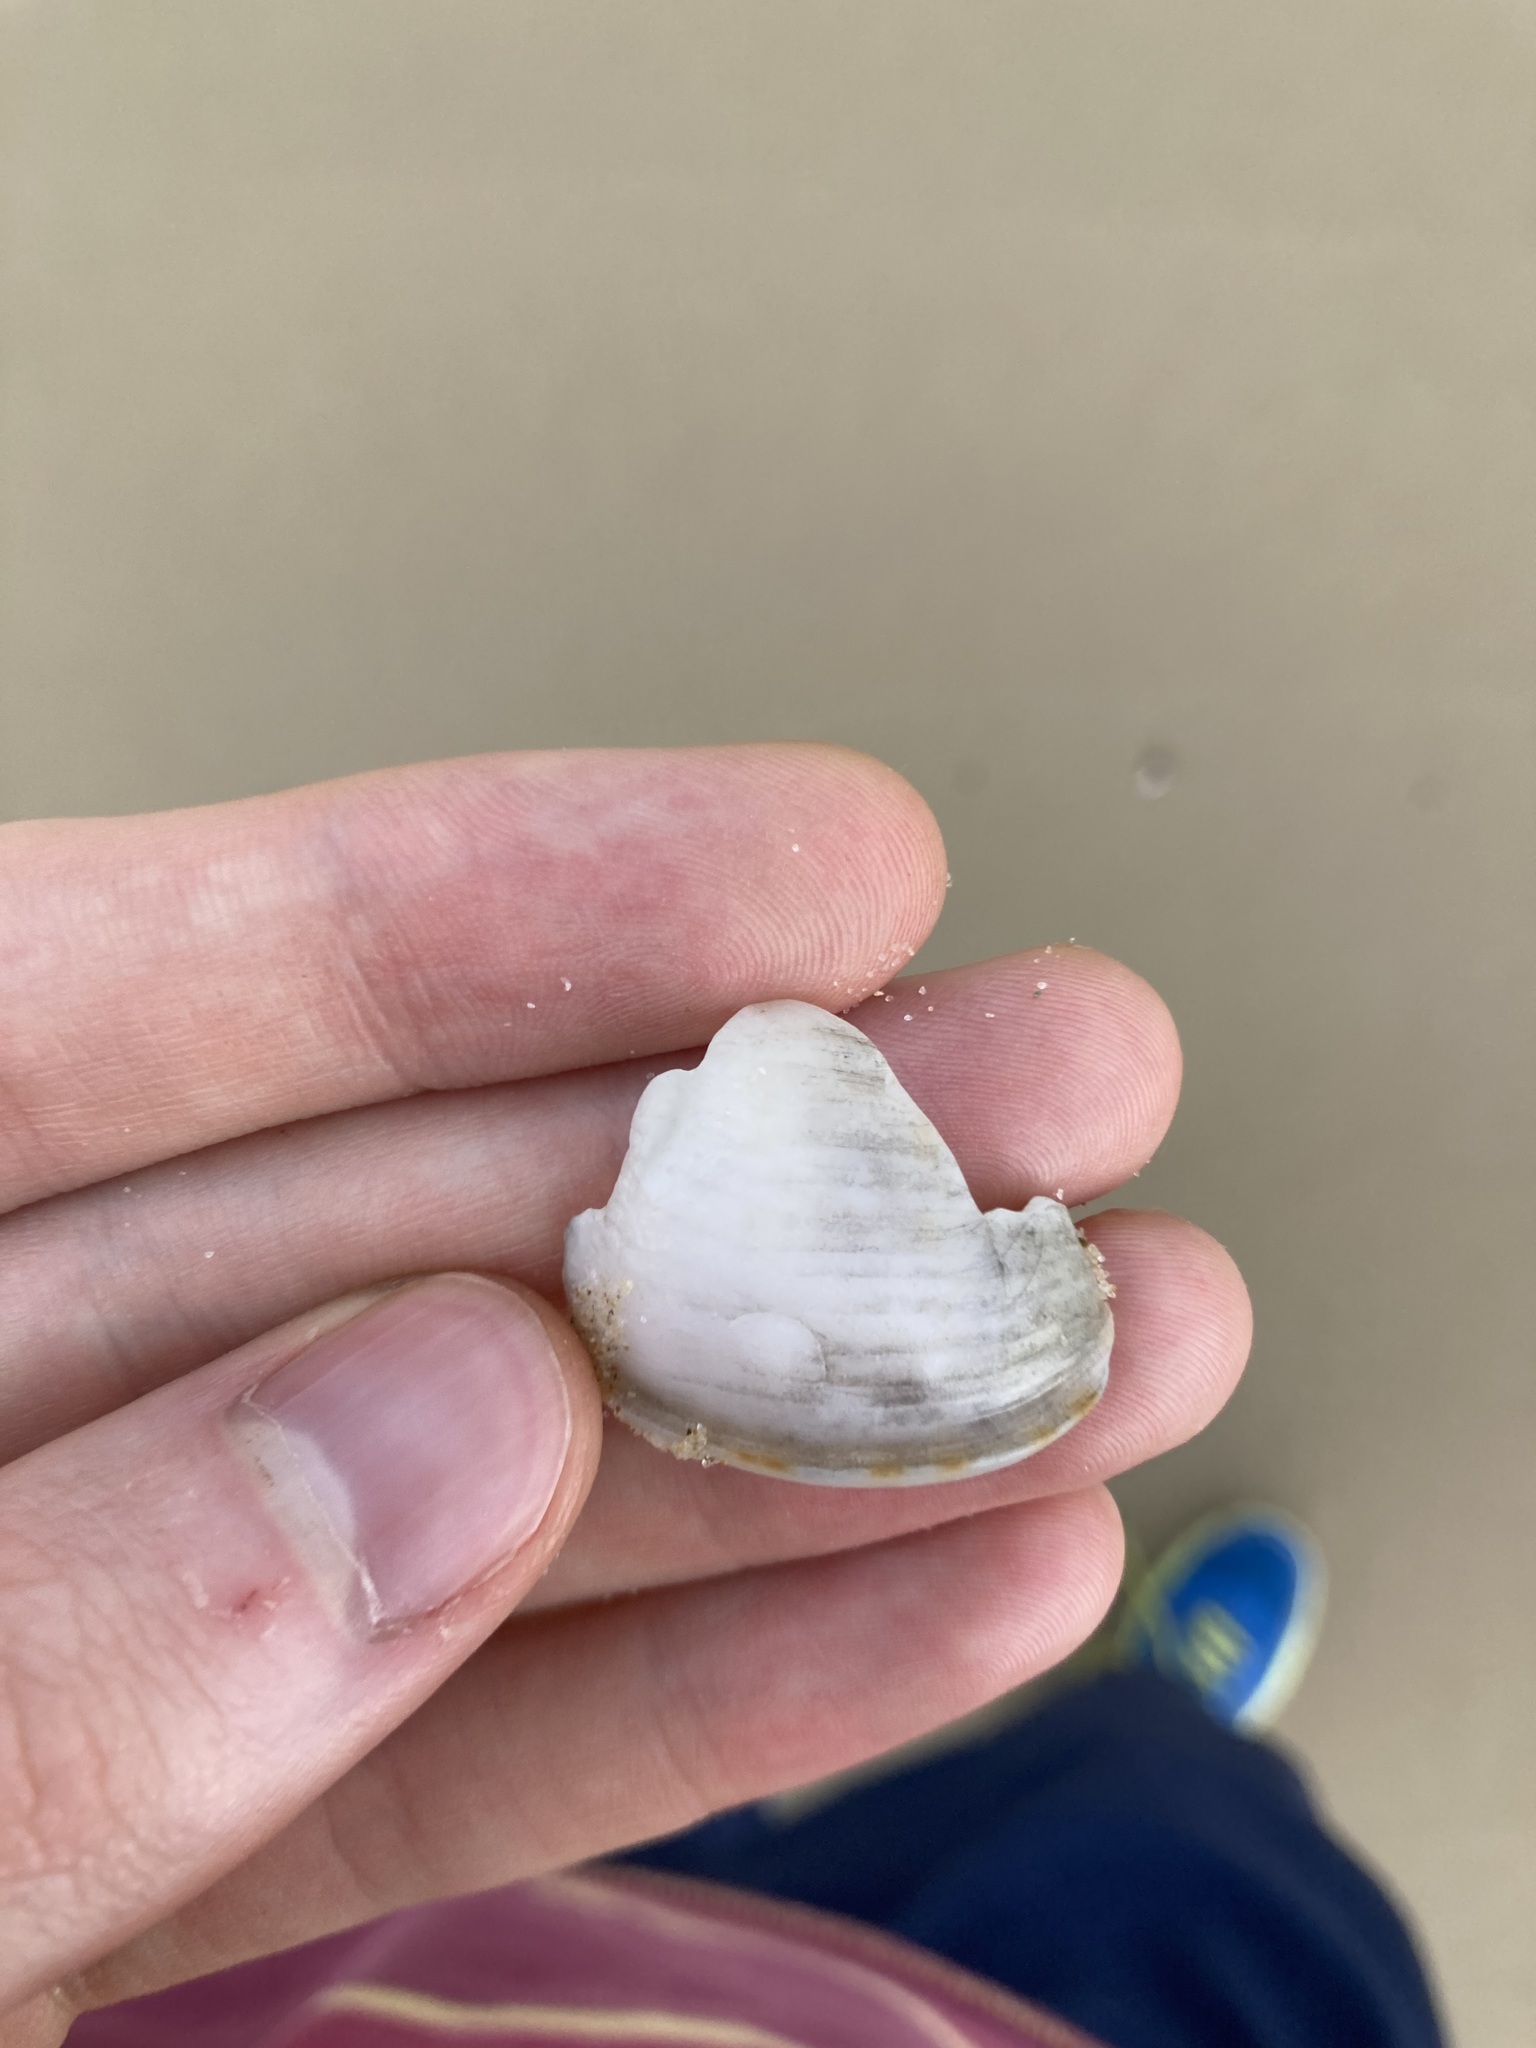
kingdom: Animalia
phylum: Mollusca
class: Gastropoda
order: Littorinimorpha
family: Cassidae
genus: Semicassis
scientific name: Semicassis labiata
